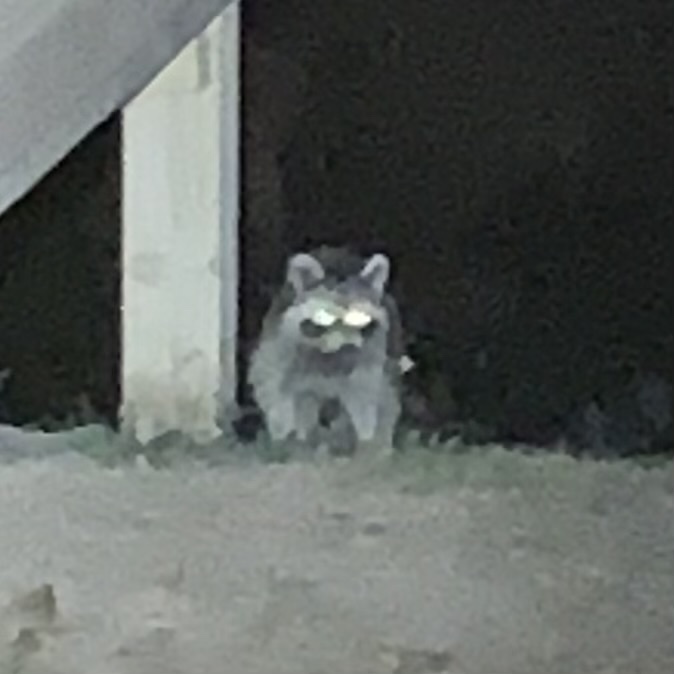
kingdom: Animalia
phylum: Chordata
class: Mammalia
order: Carnivora
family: Procyonidae
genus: Procyon
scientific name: Procyon lotor
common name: Raccoon
